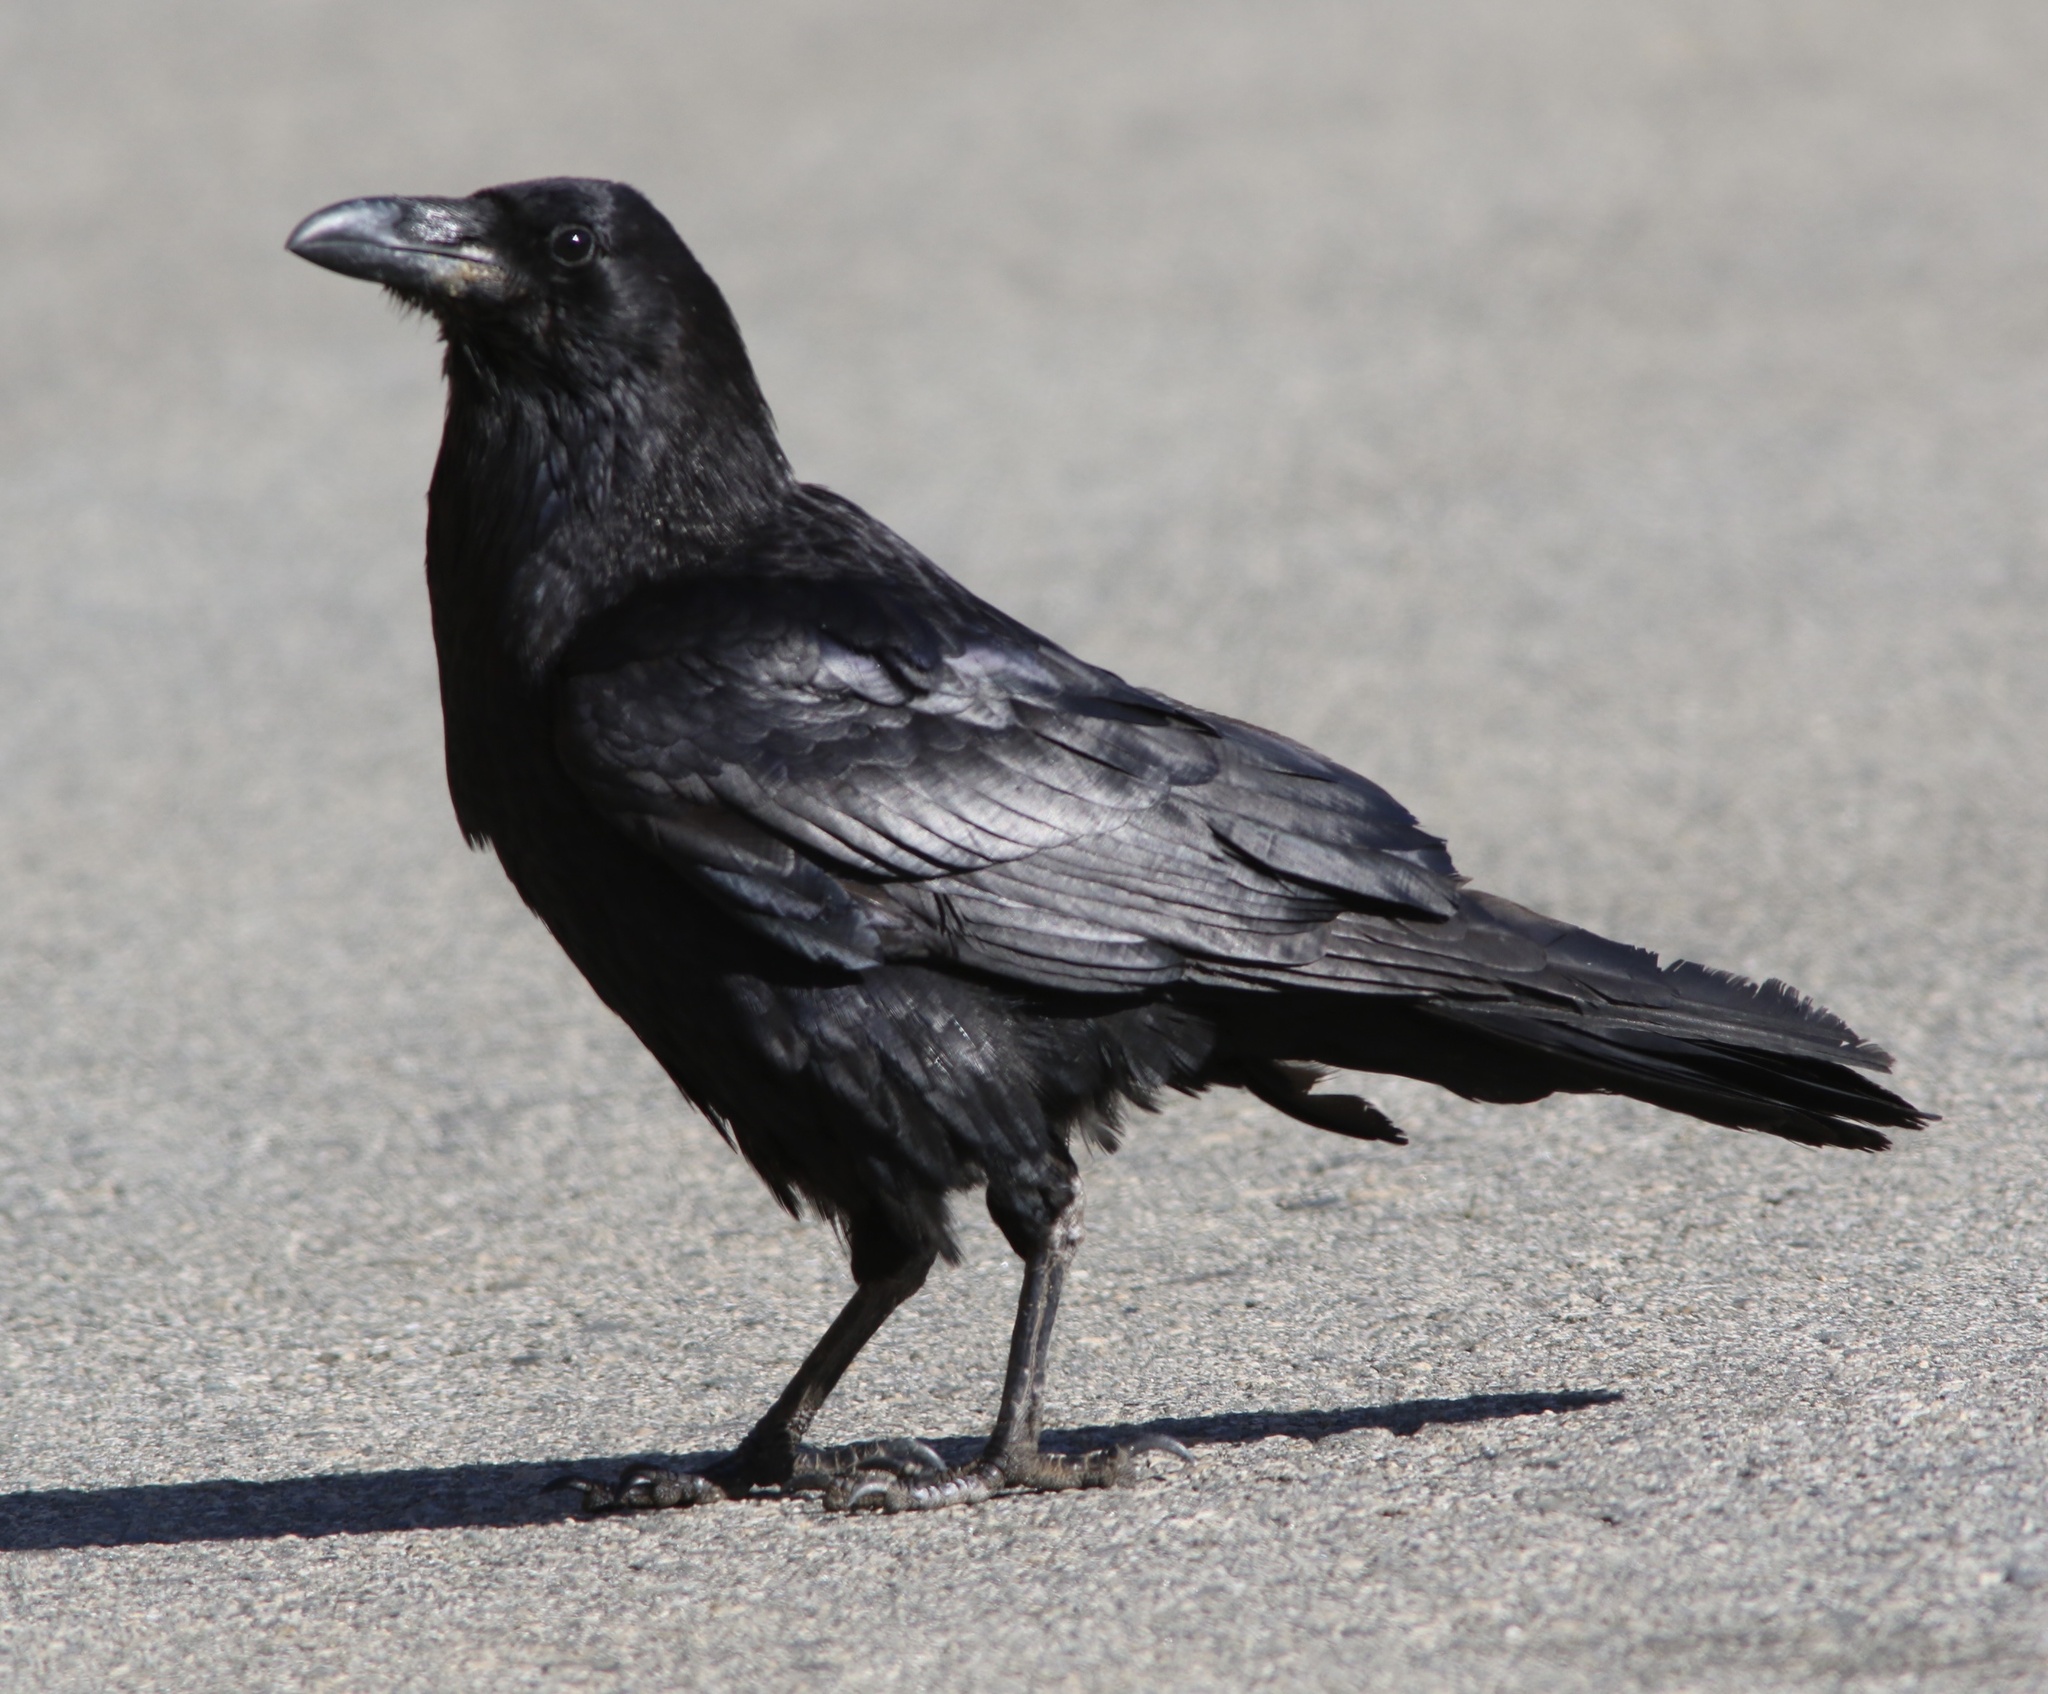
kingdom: Animalia
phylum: Chordata
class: Aves
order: Passeriformes
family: Corvidae
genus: Corvus
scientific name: Corvus corax
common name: Common raven
